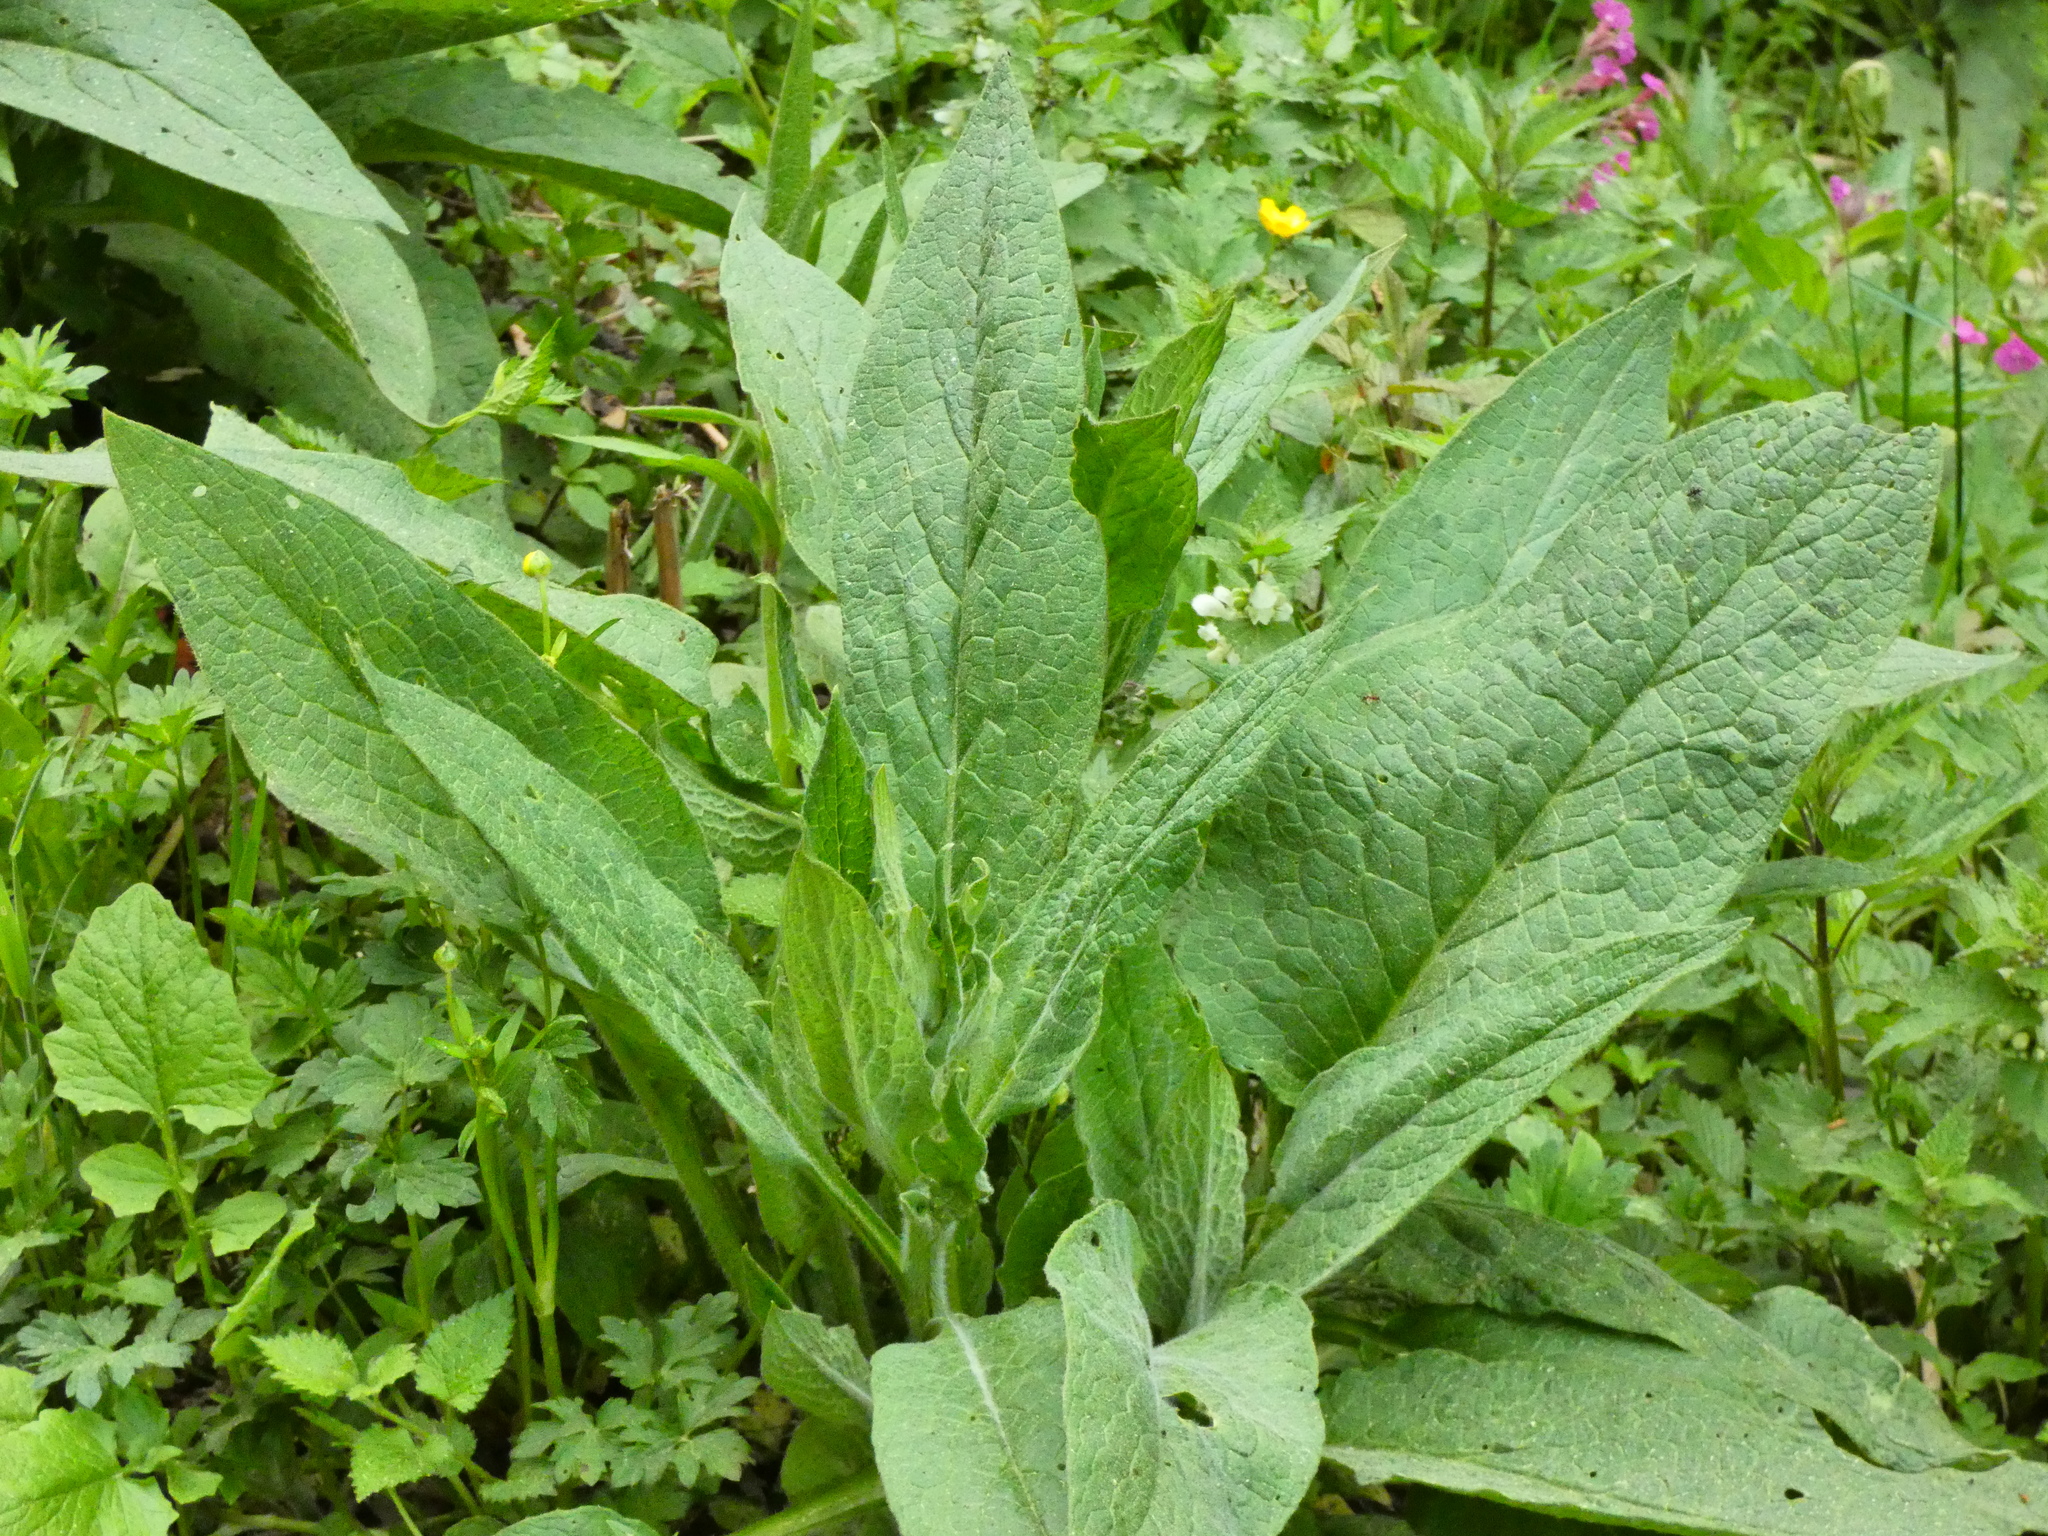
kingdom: Plantae
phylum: Tracheophyta
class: Magnoliopsida
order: Boraginales
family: Boraginaceae
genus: Symphytum
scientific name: Symphytum officinale
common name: Common comfrey
